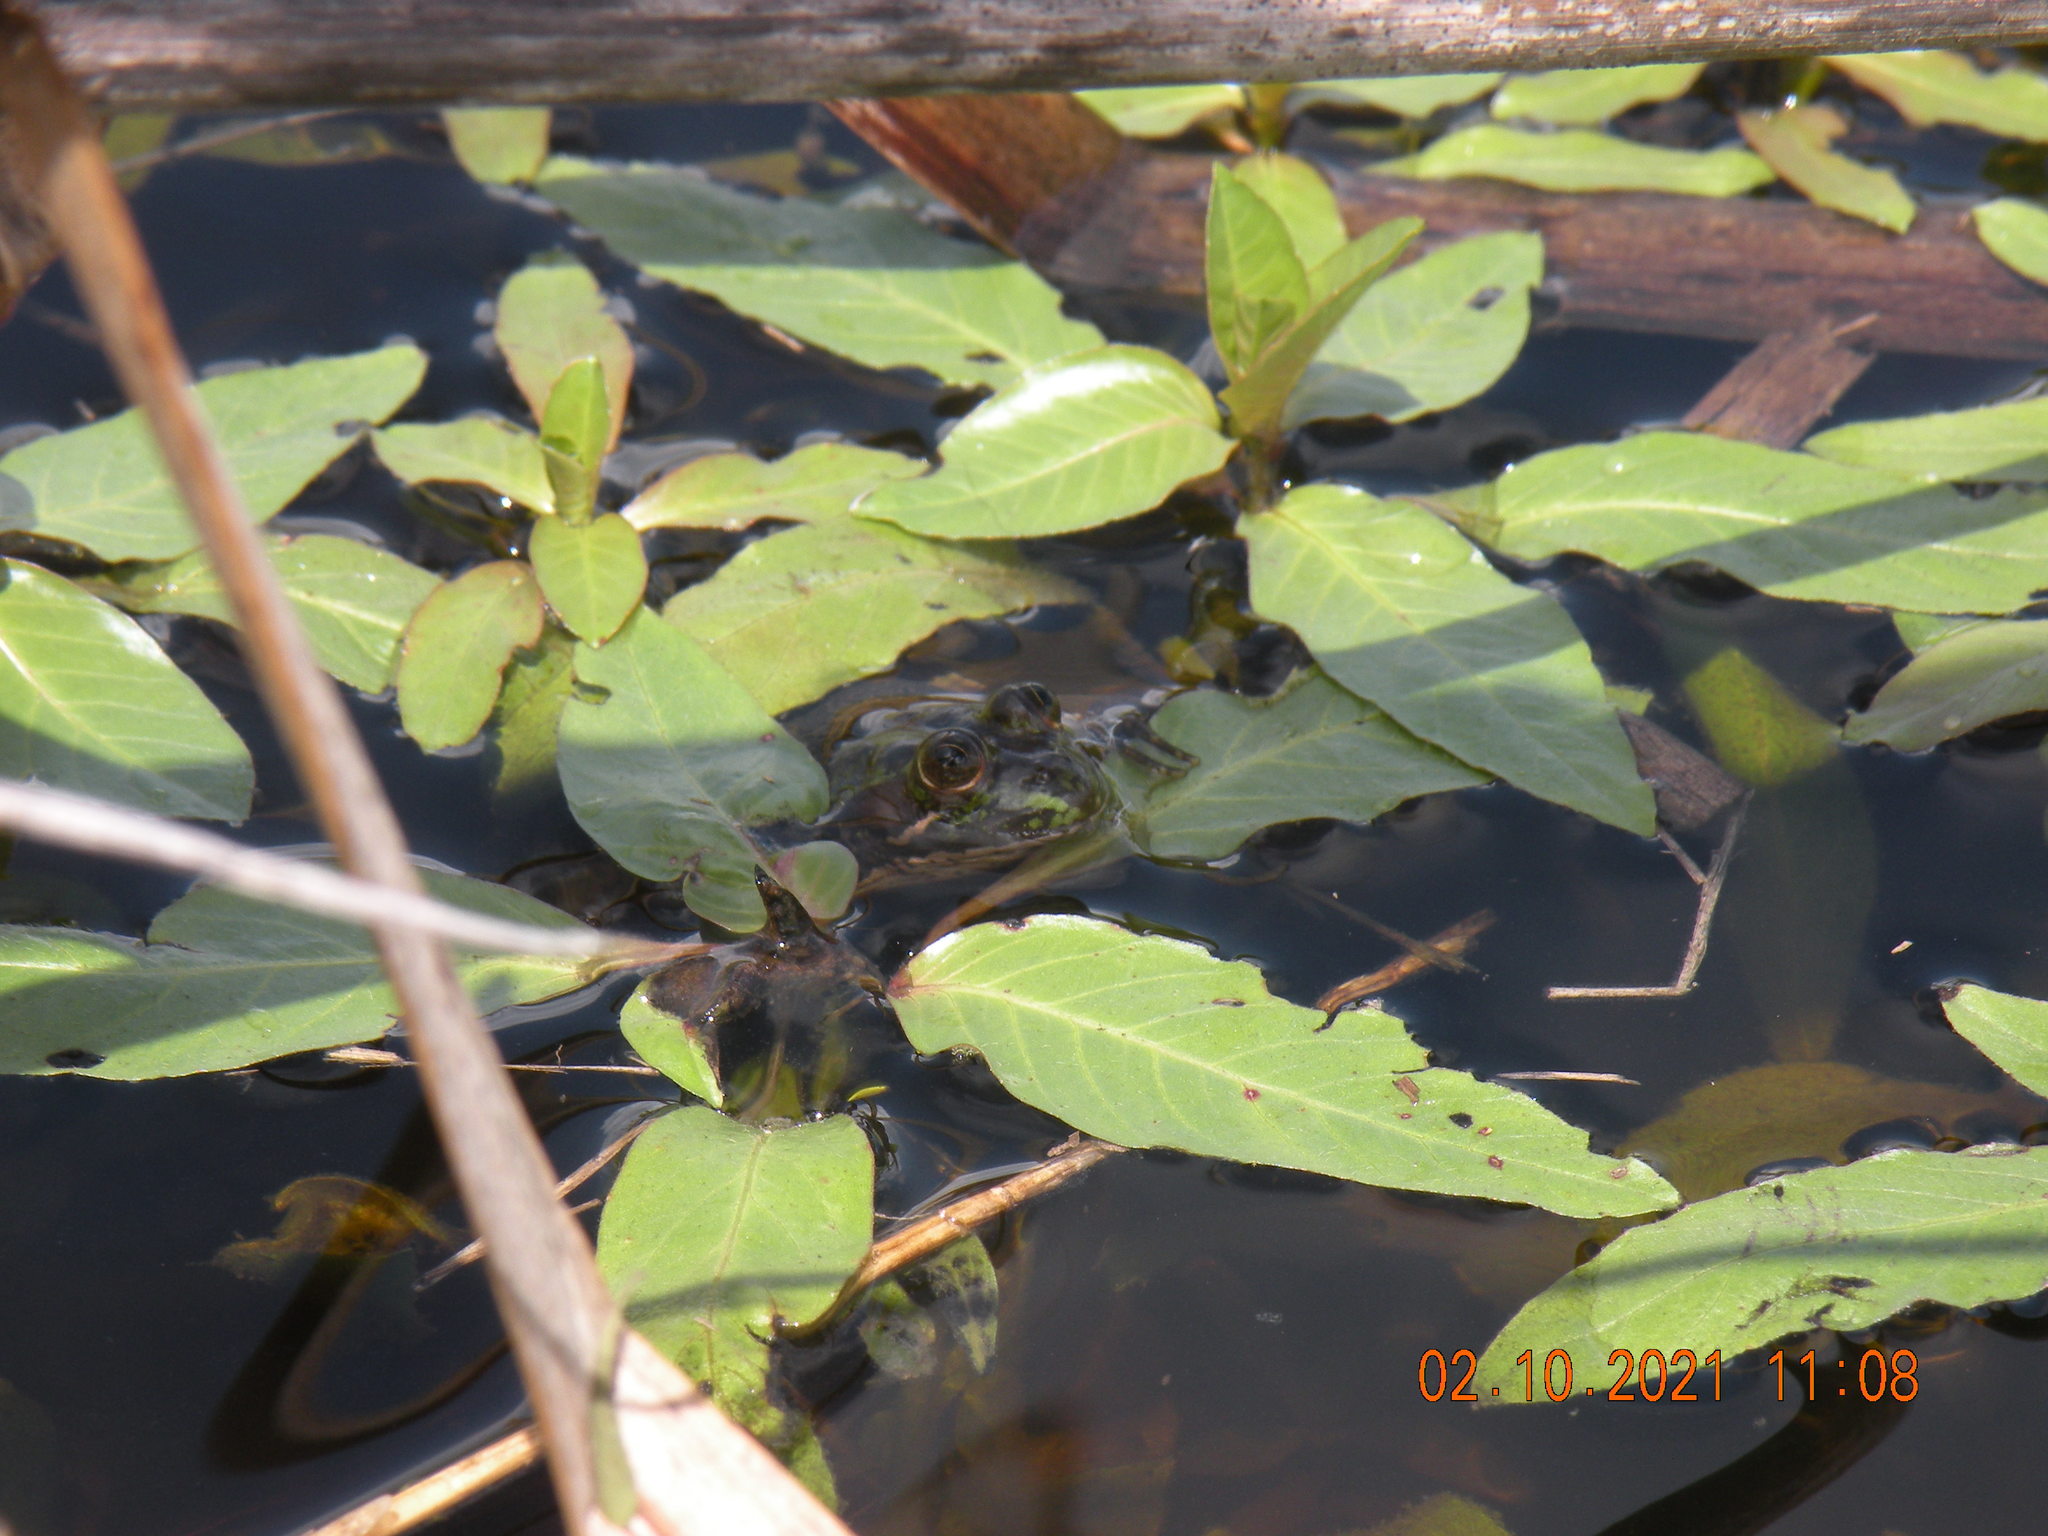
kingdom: Animalia
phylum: Chordata
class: Amphibia
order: Anura
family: Hylidae
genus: Pseudis
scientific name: Pseudis minuta
